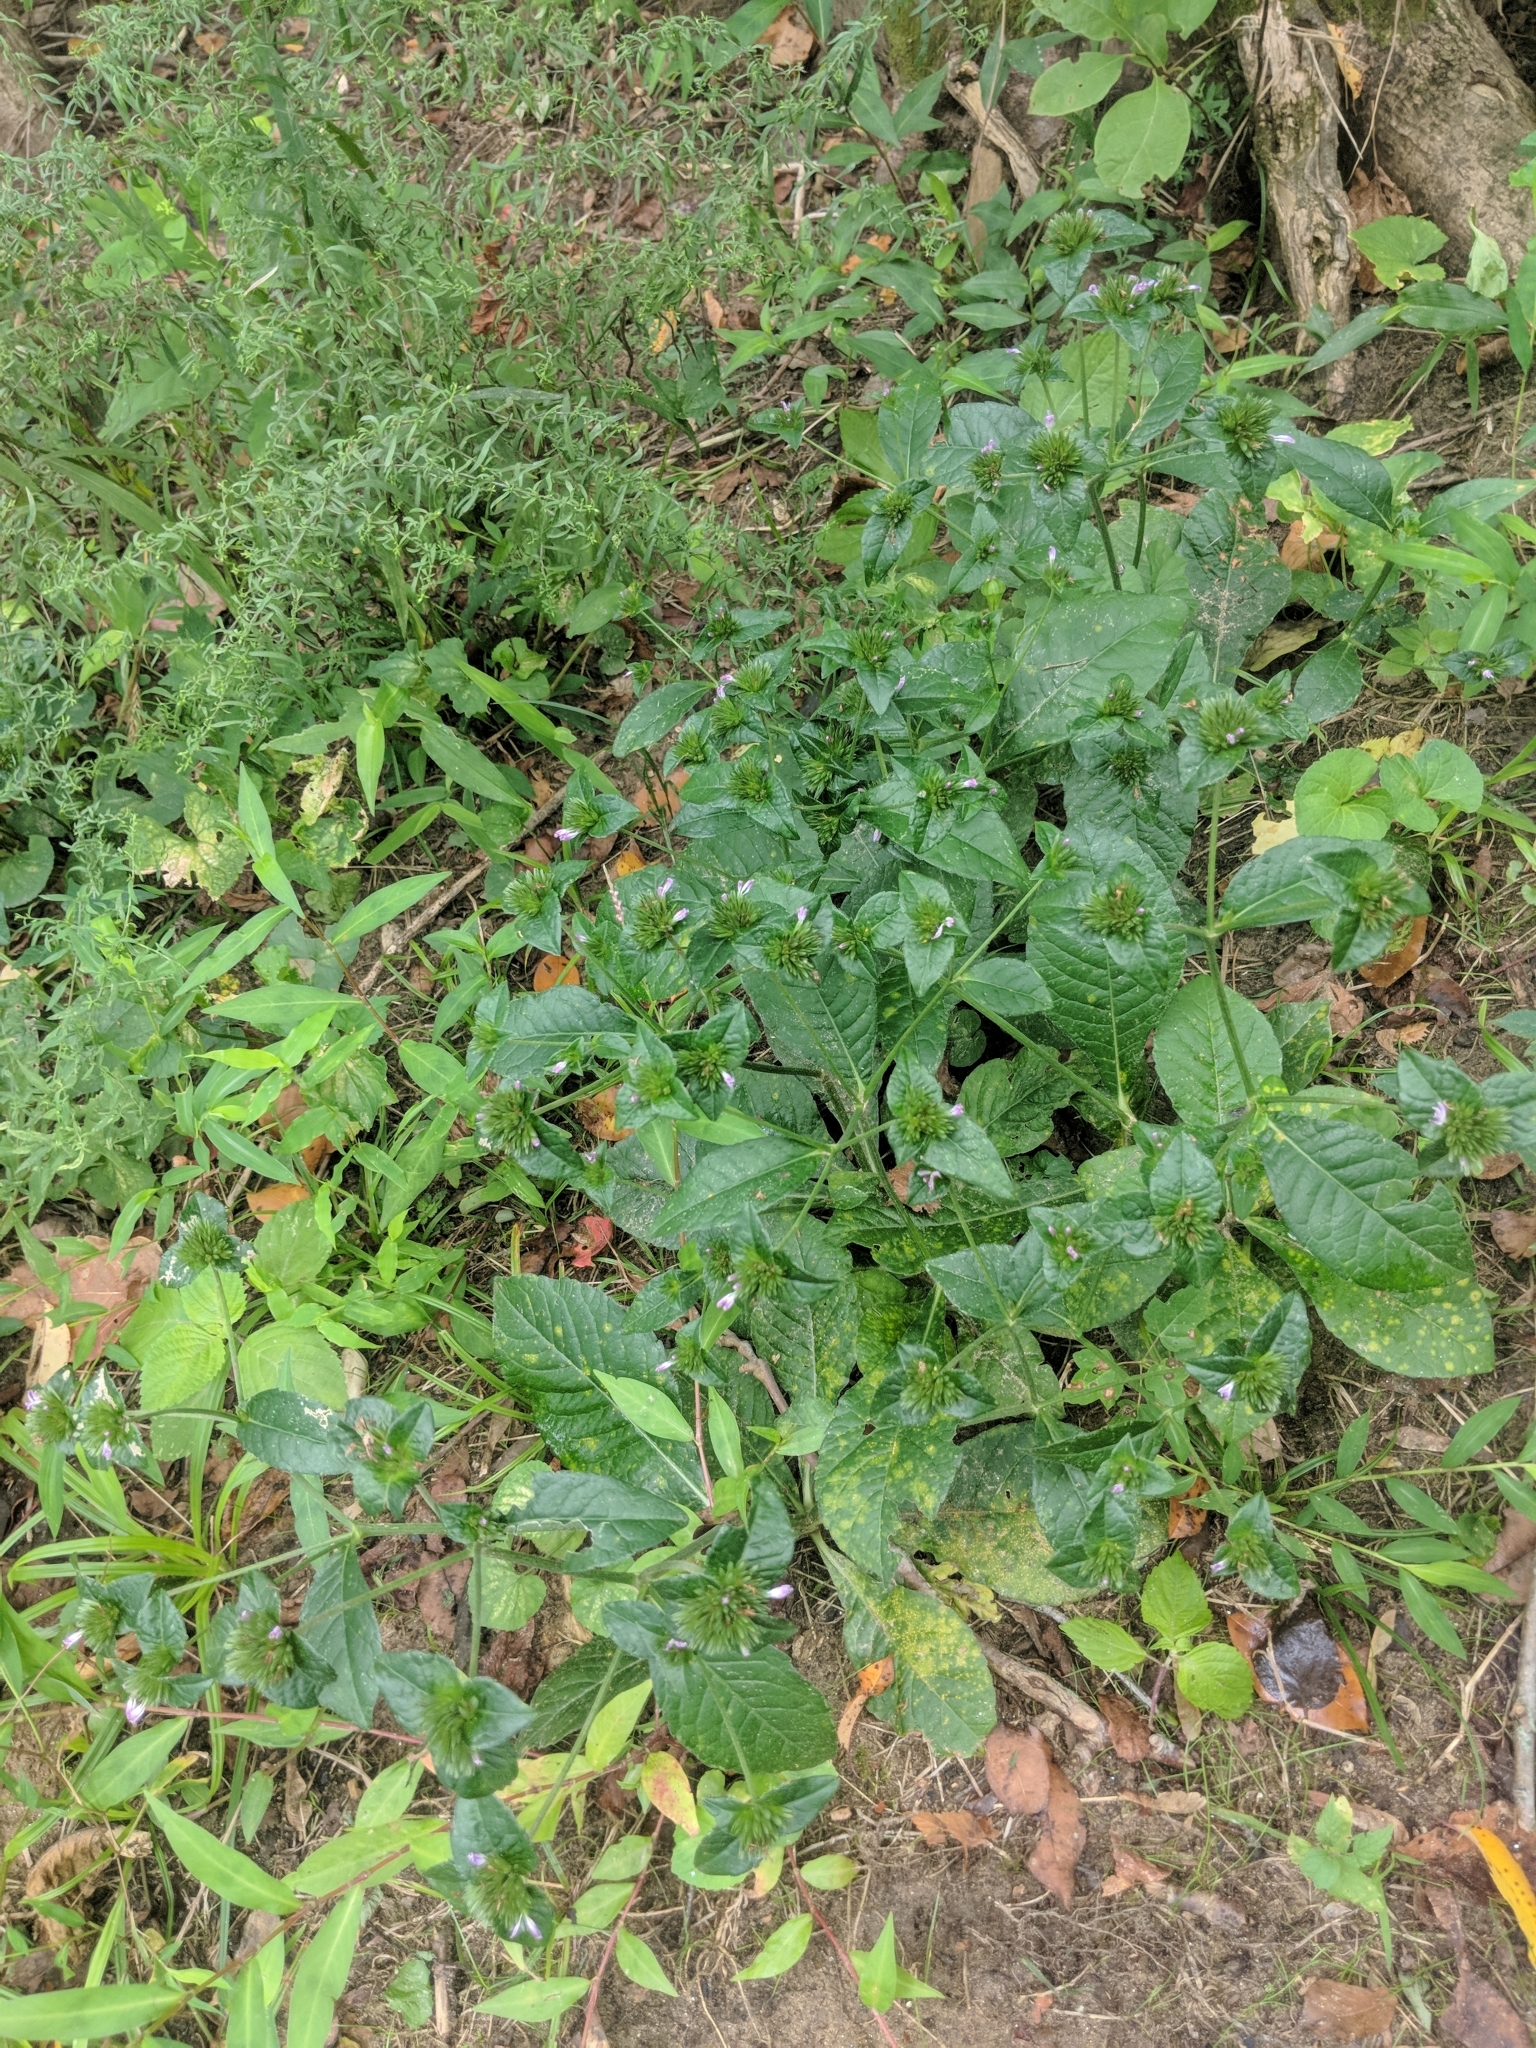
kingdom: Plantae
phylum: Tracheophyta
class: Magnoliopsida
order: Asterales
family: Asteraceae
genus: Elephantopus
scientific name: Elephantopus carolinianus
